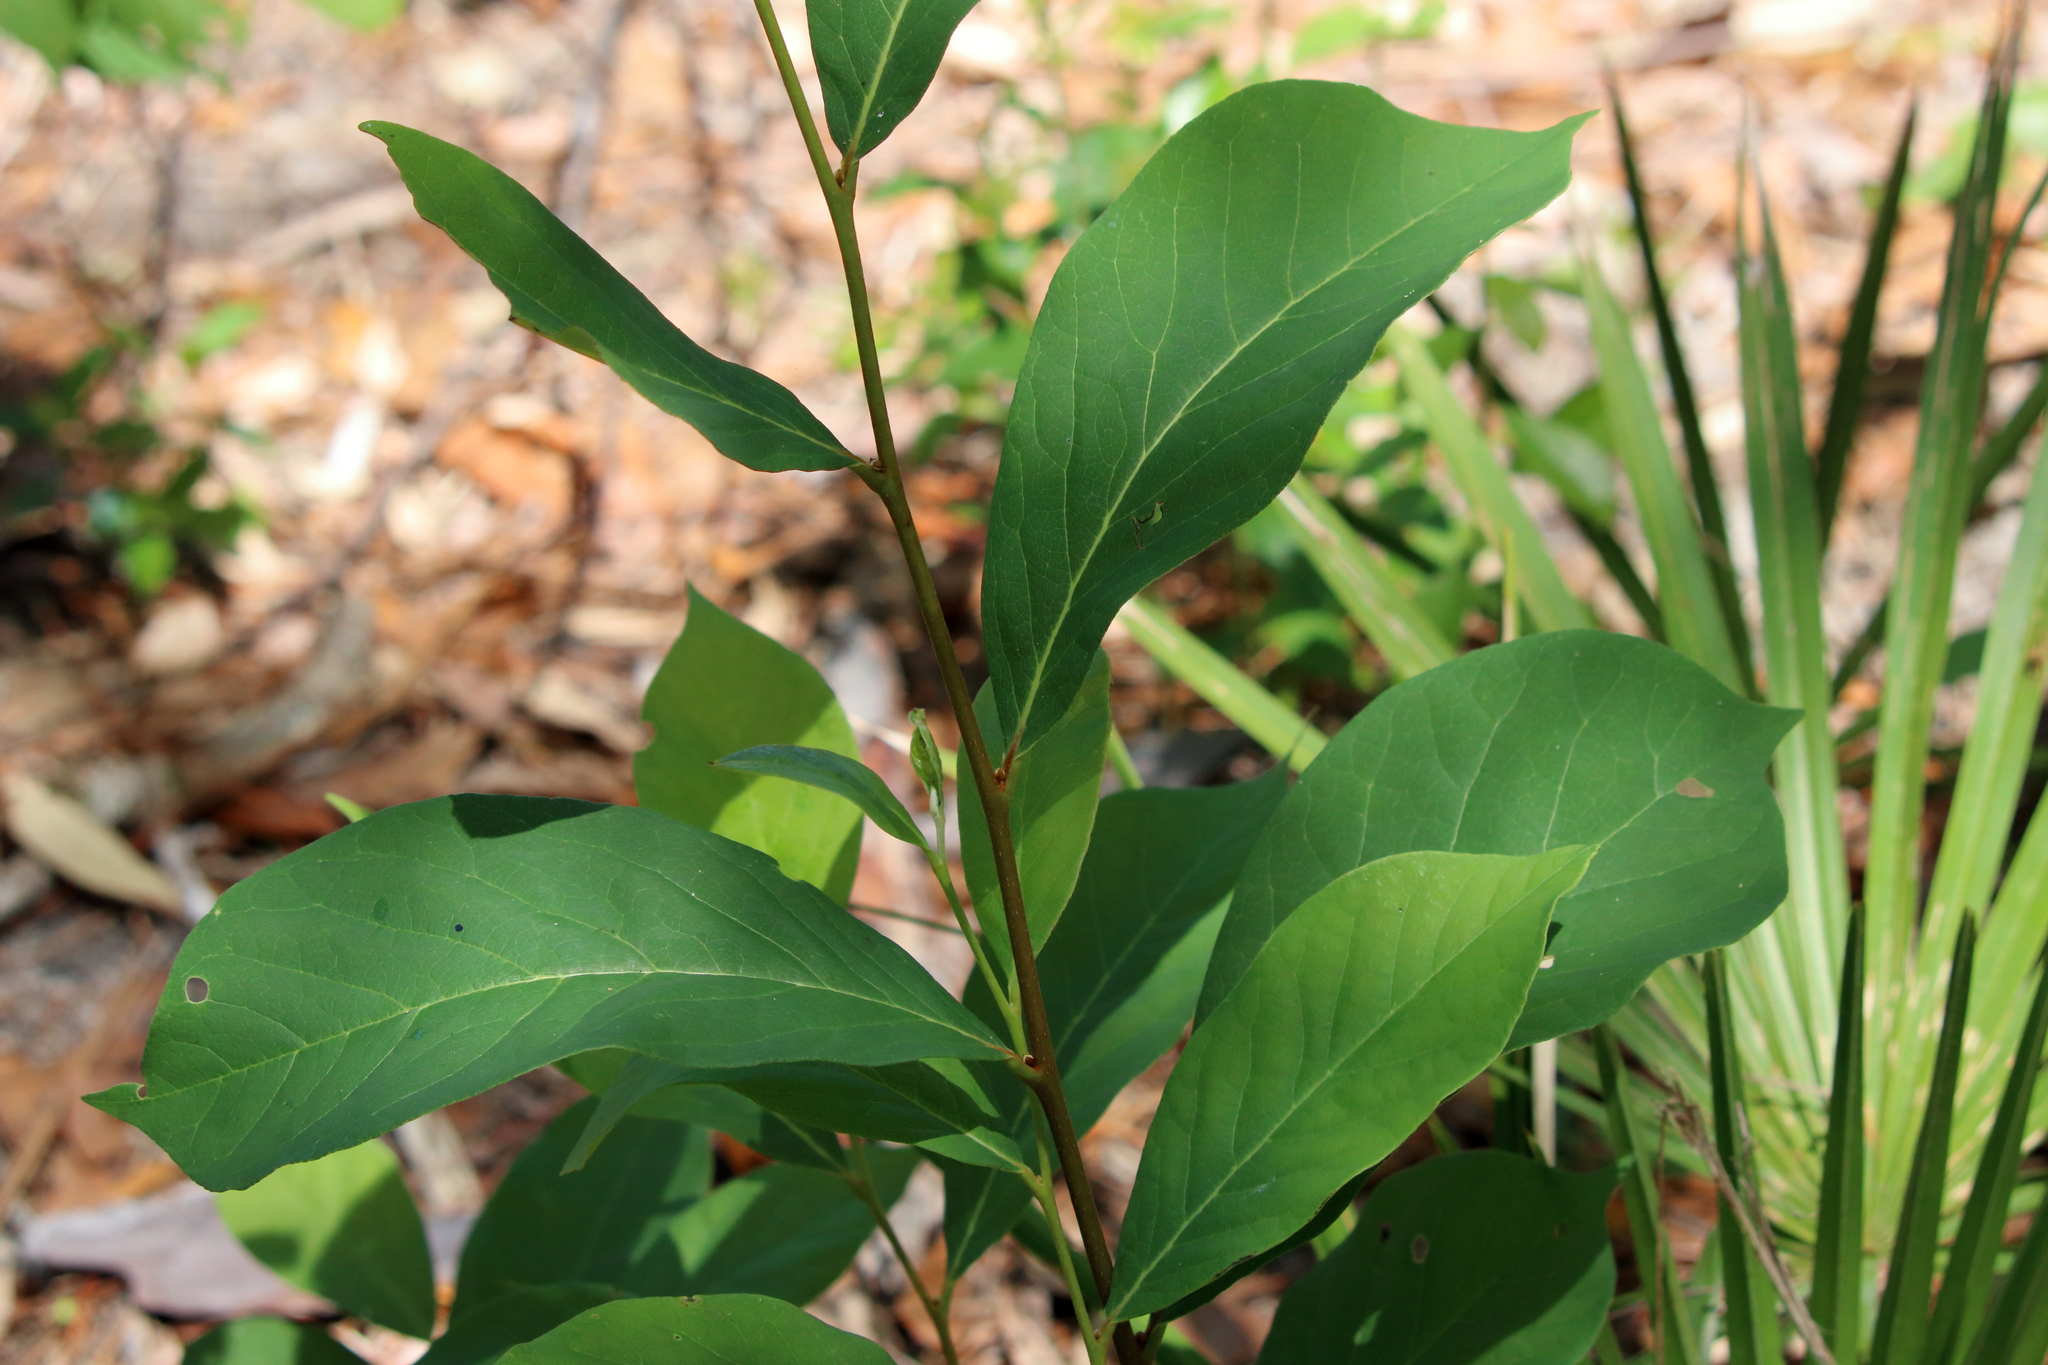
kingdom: Plantae
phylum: Tracheophyta
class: Magnoliopsida
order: Magnoliales
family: Annonaceae
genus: Asimina
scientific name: Asimina parviflora
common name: Dwarf pawpaw
